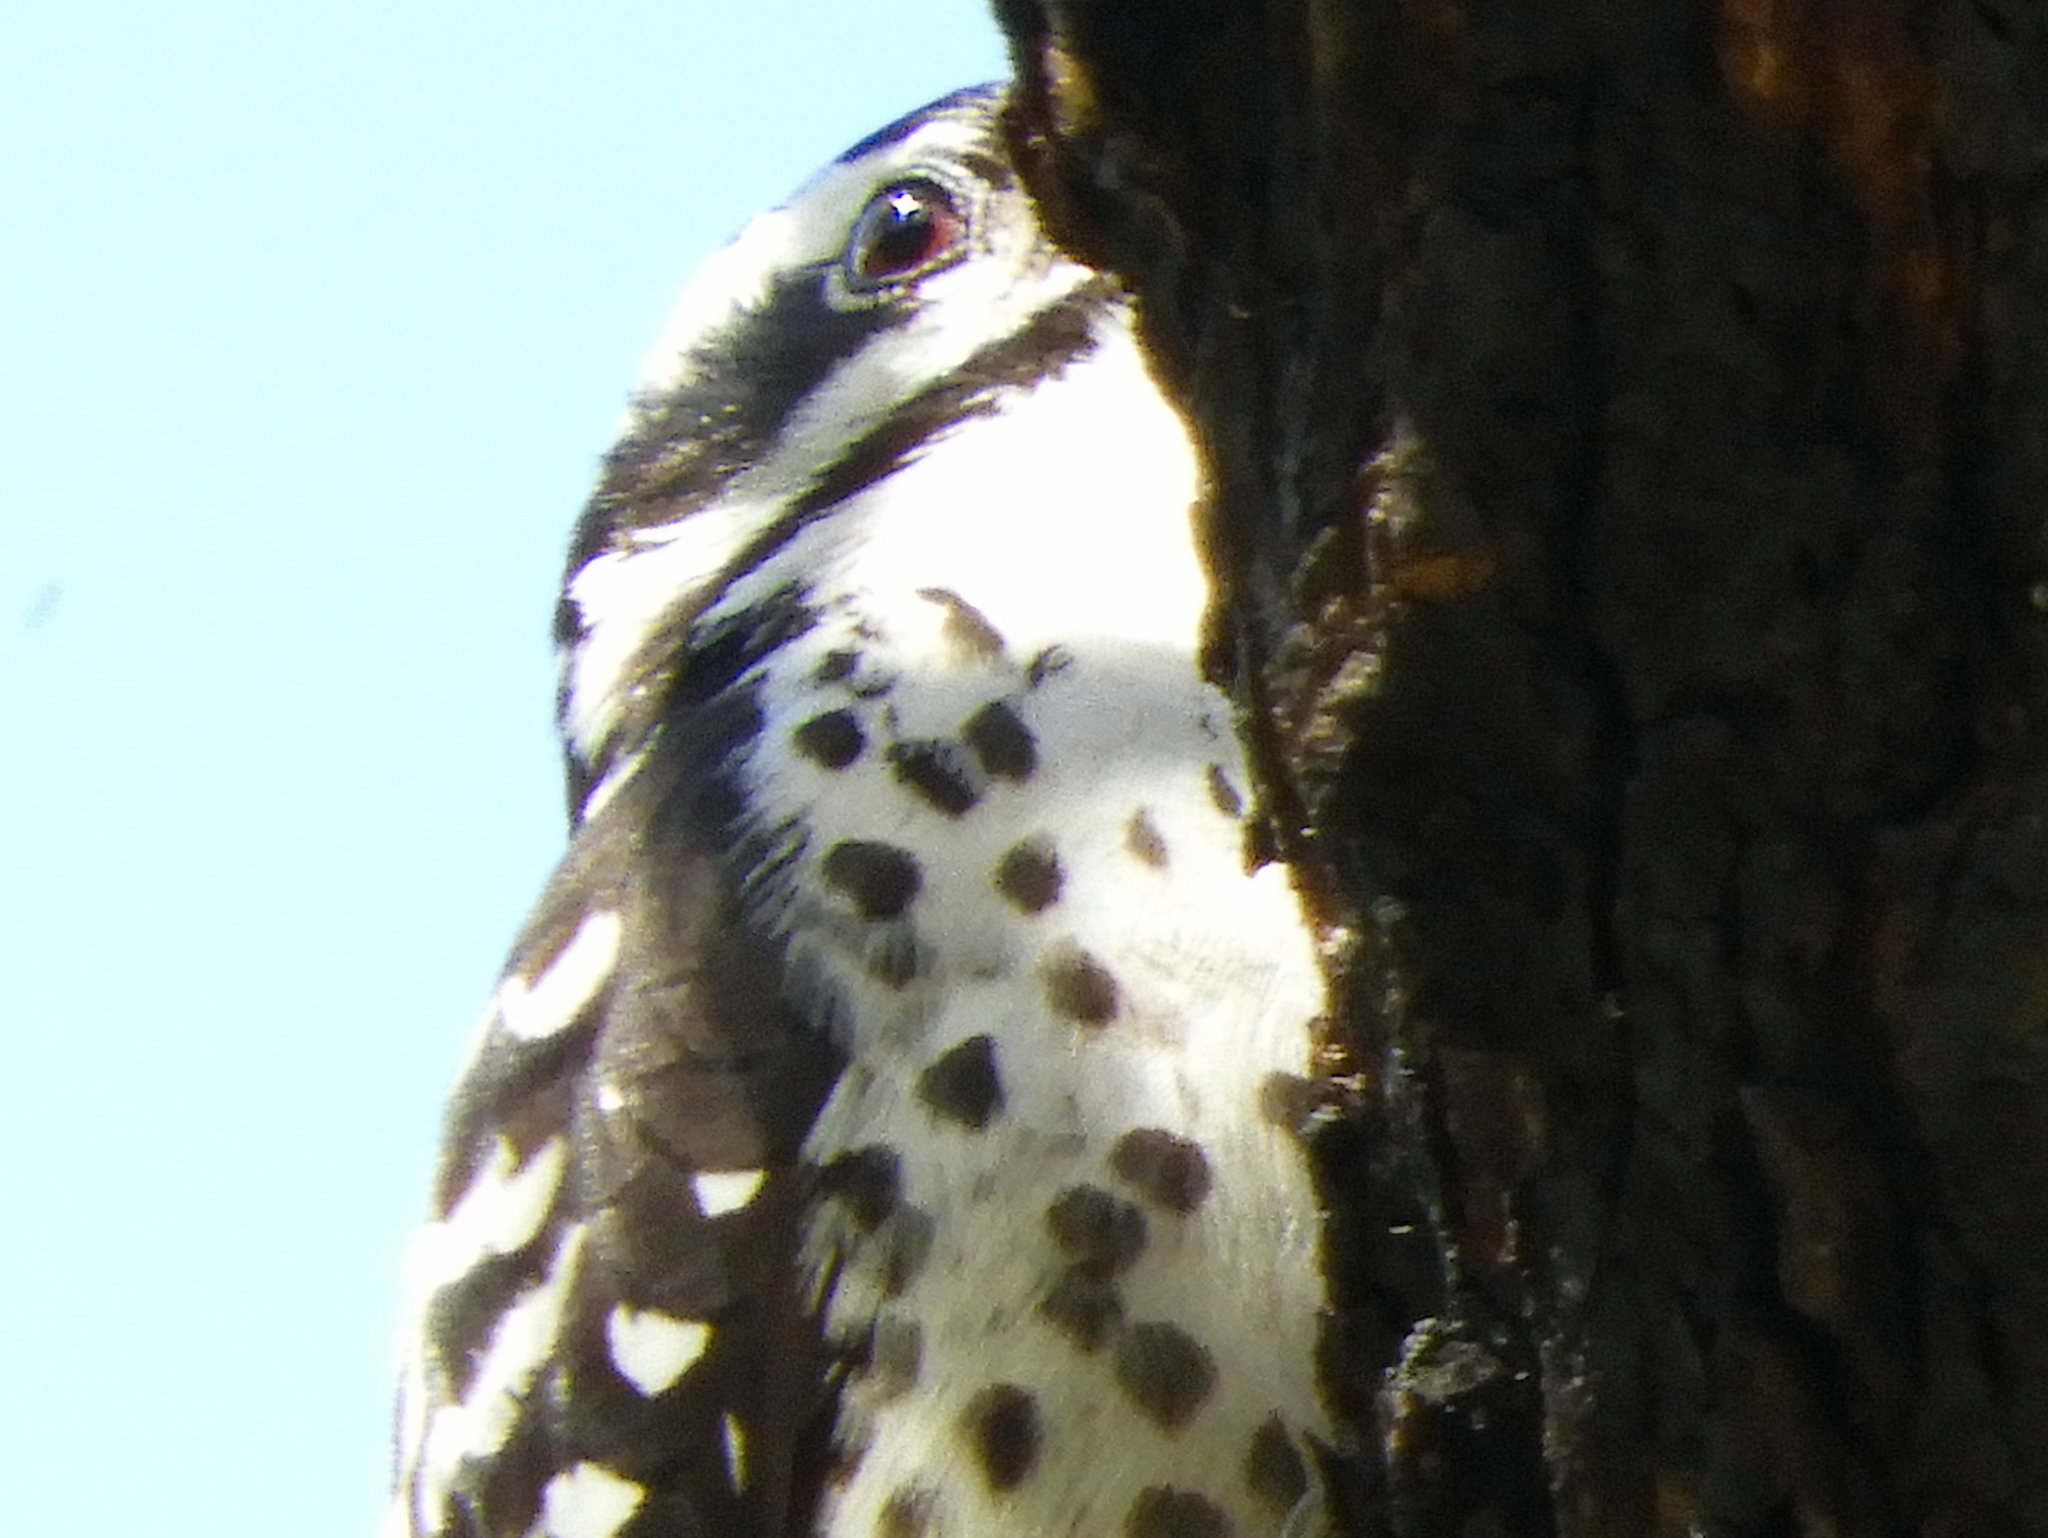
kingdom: Animalia
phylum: Chordata
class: Aves
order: Piciformes
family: Picidae
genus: Dryobates
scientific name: Dryobates nuttallii
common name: Nuttall's woodpecker
